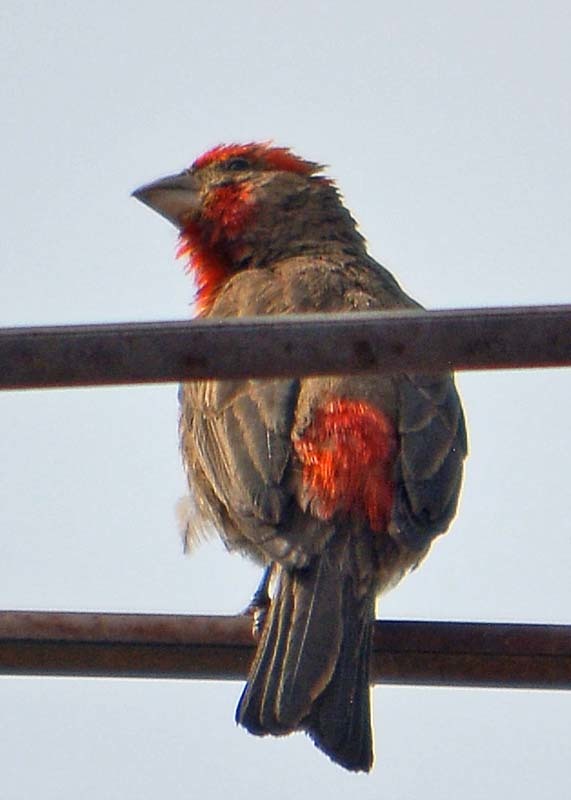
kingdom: Animalia
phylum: Chordata
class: Aves
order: Passeriformes
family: Fringillidae
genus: Haemorhous
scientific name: Haemorhous mexicanus
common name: House finch
